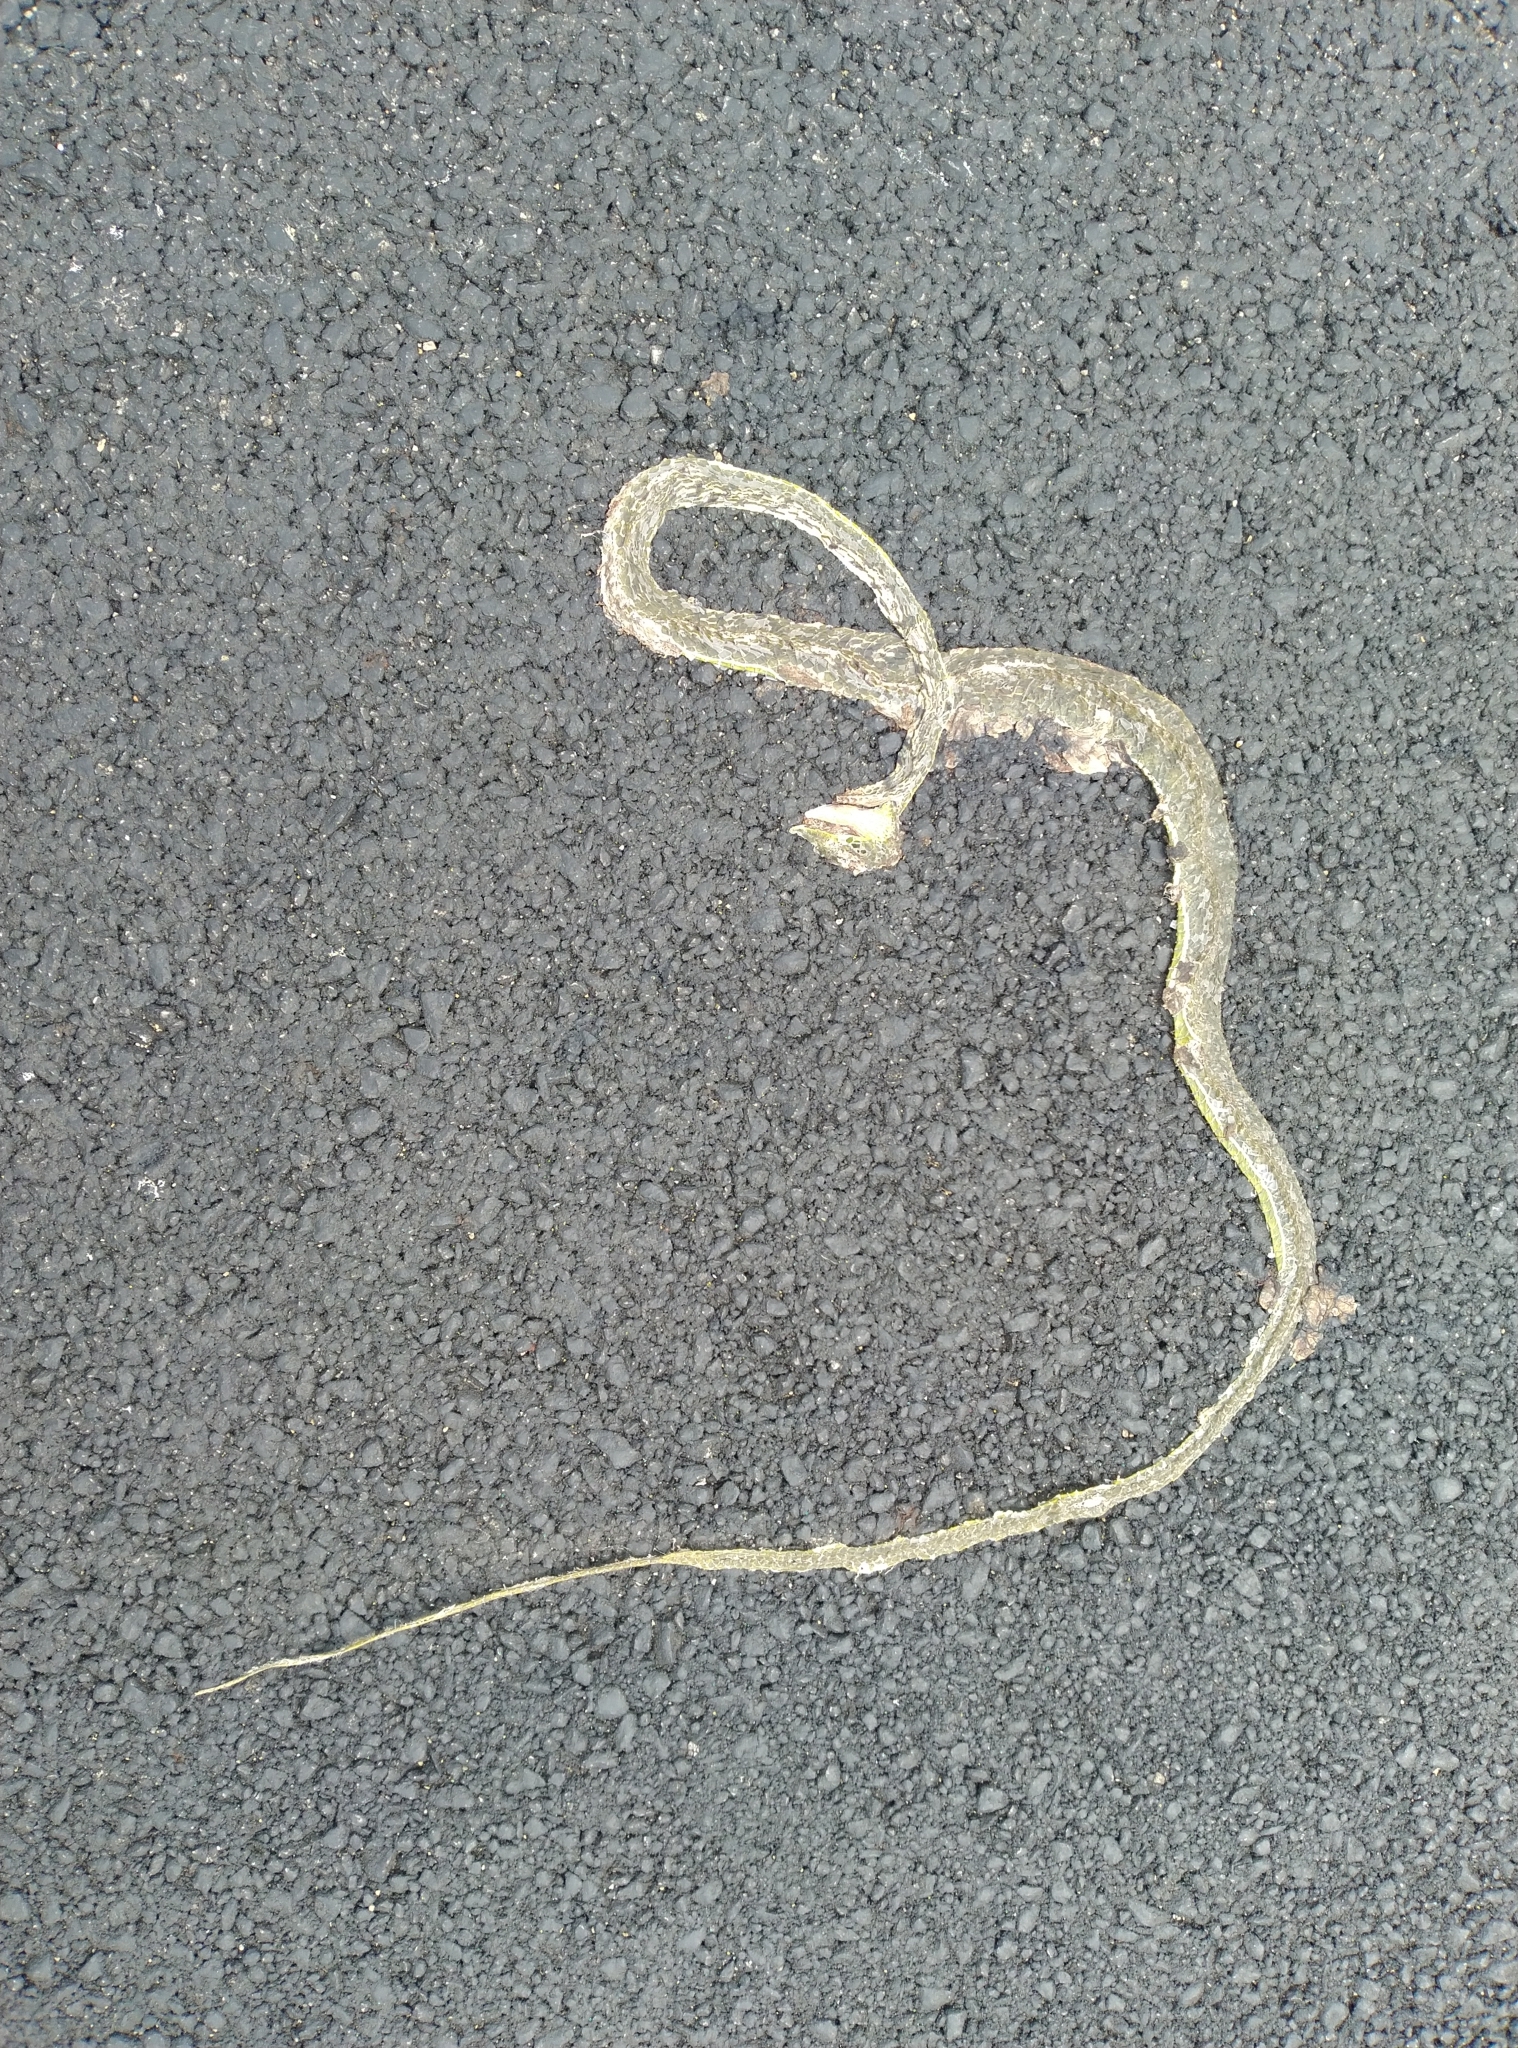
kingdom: Animalia
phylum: Chordata
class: Squamata
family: Colubridae
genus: Ahaetulla
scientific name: Ahaetulla oxyrhyncha
